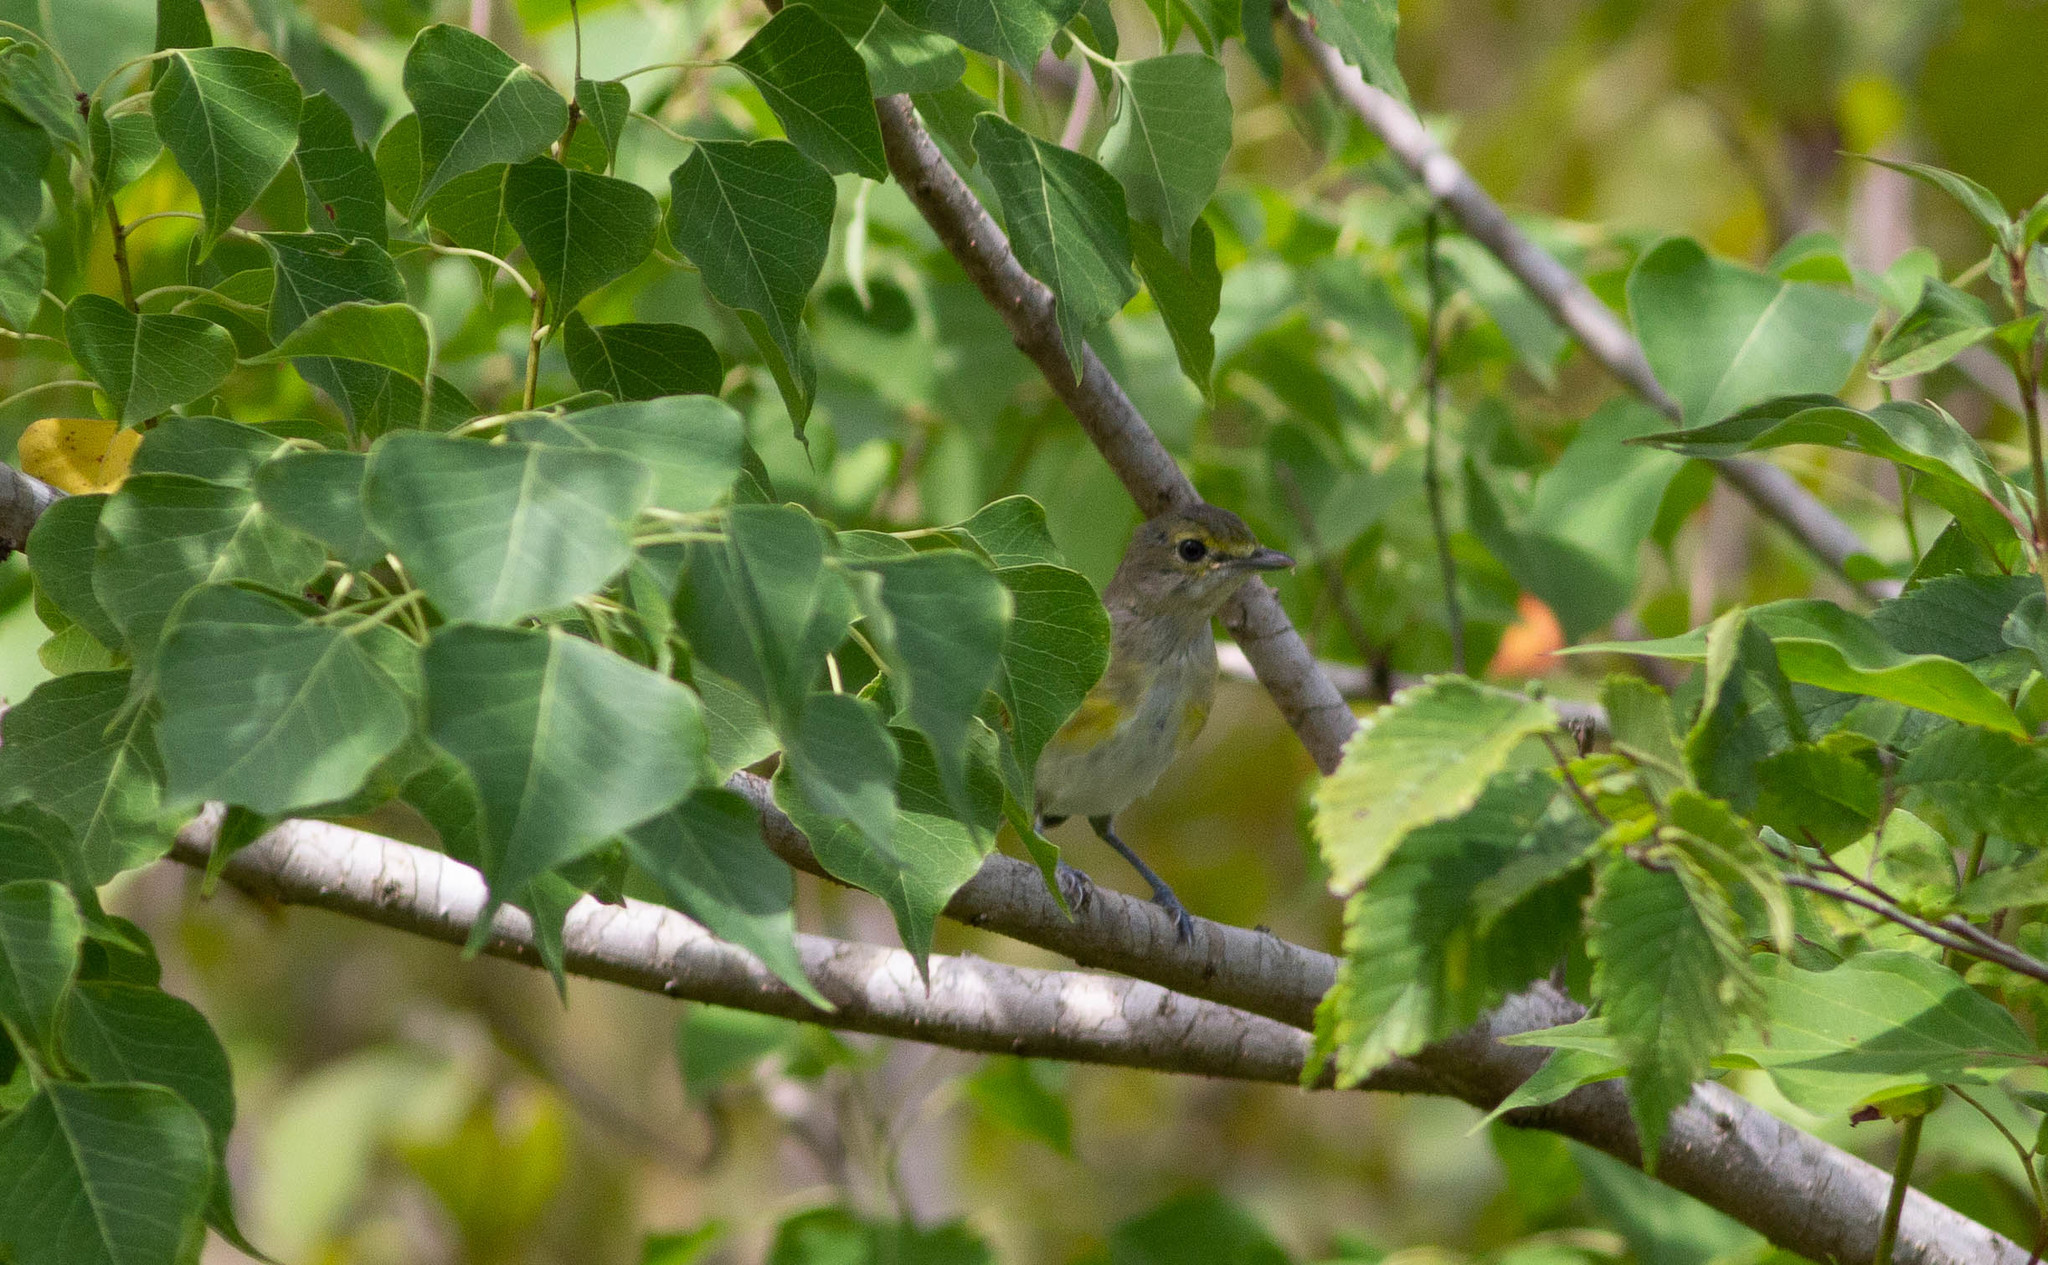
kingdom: Animalia
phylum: Chordata
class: Aves
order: Passeriformes
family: Vireonidae
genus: Vireo
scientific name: Vireo griseus
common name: White-eyed vireo
